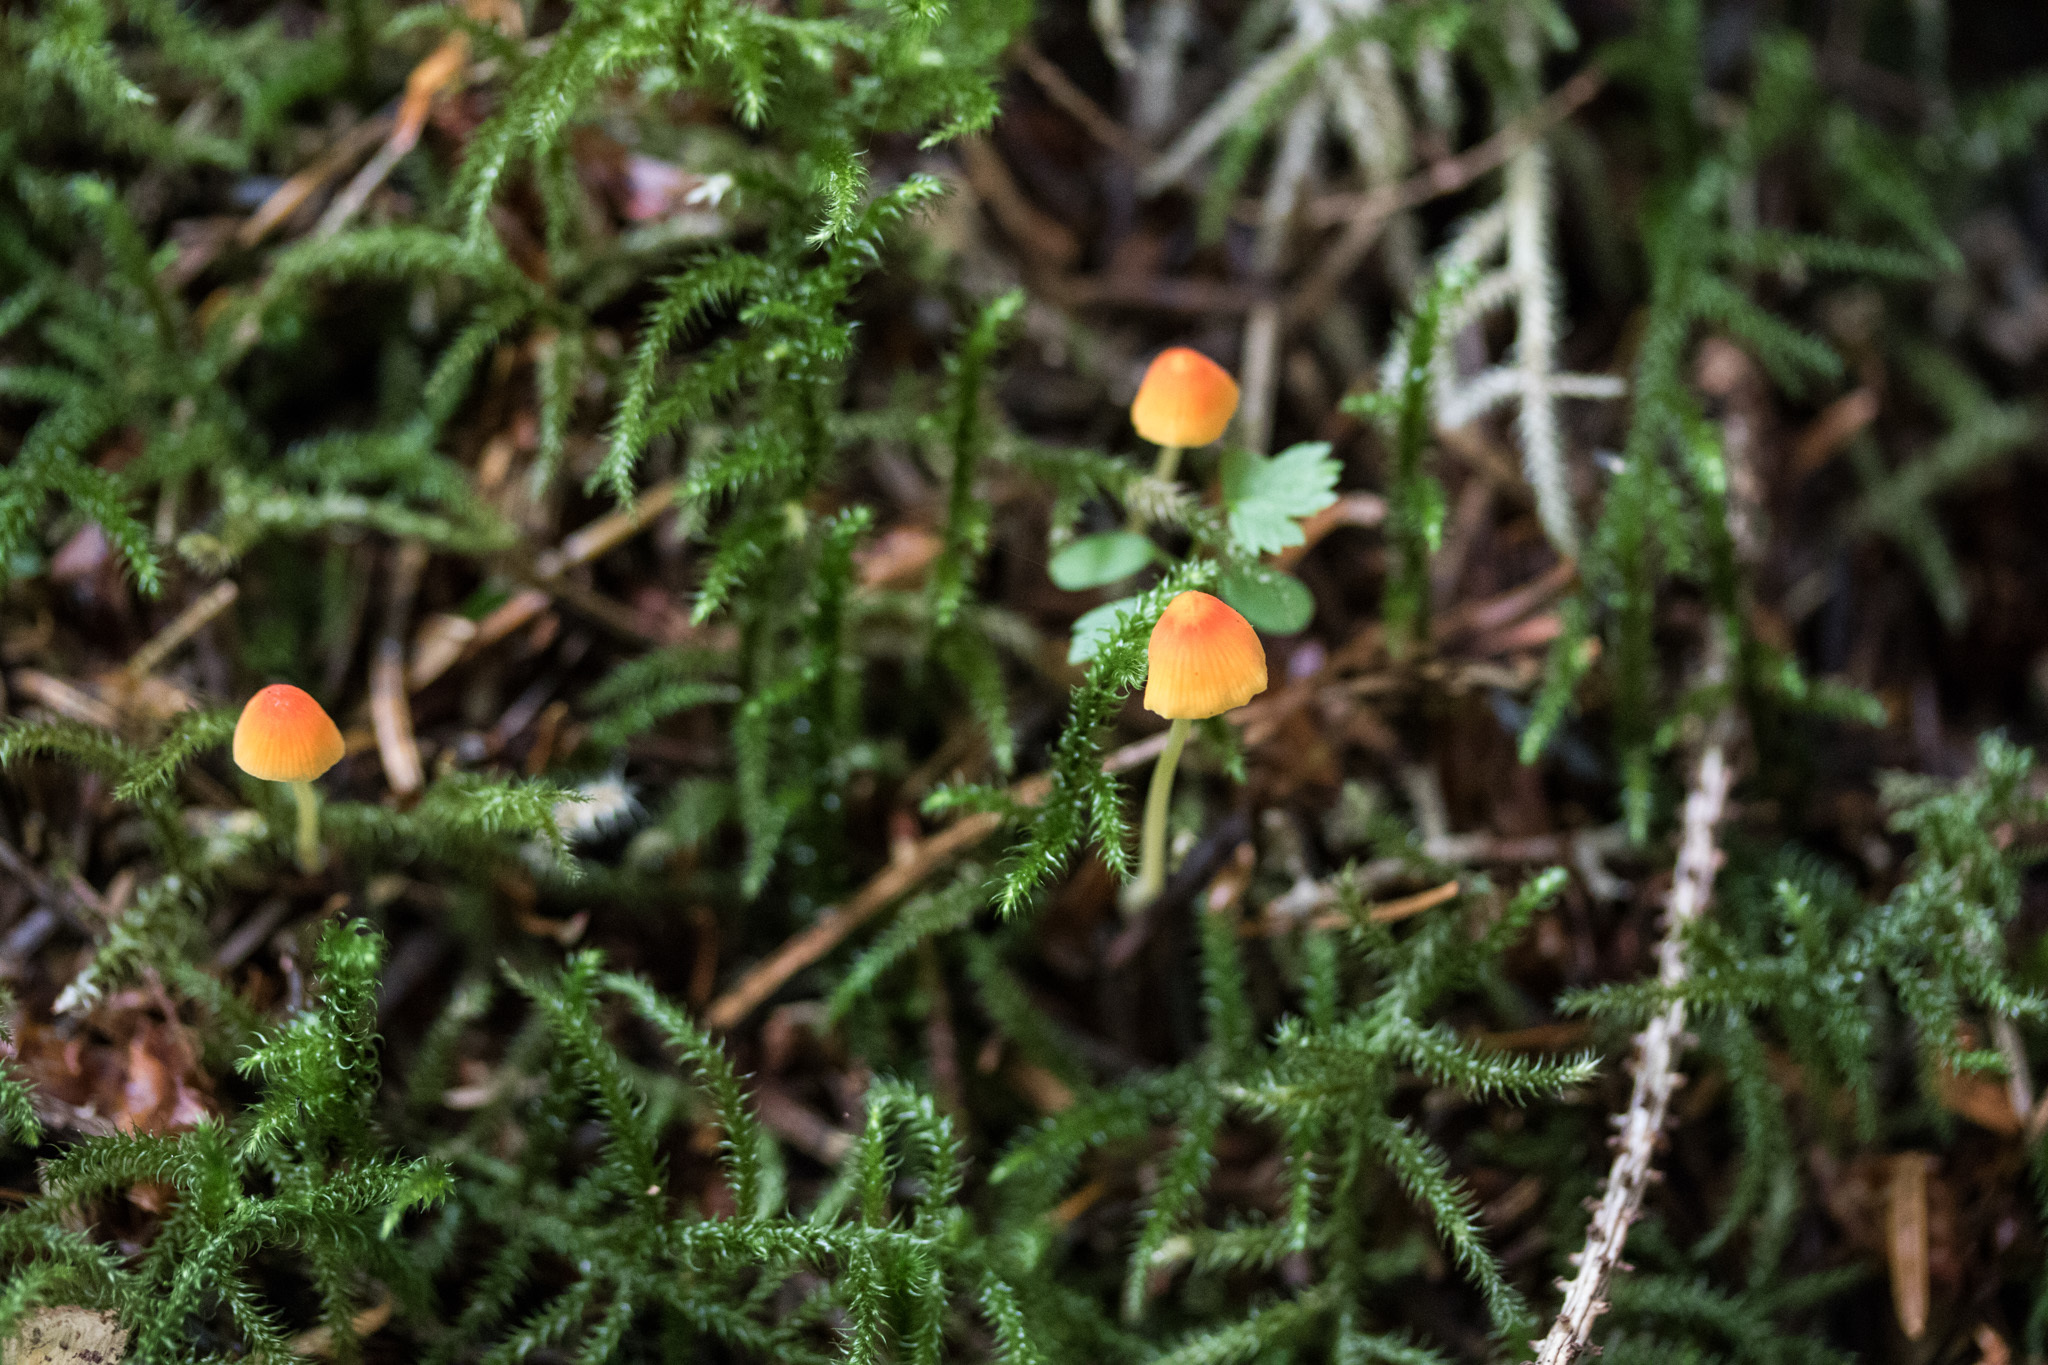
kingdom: Fungi
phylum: Basidiomycota
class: Agaricomycetes
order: Agaricales
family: Mycenaceae
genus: Atheniella
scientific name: Atheniella aurantiidisca
